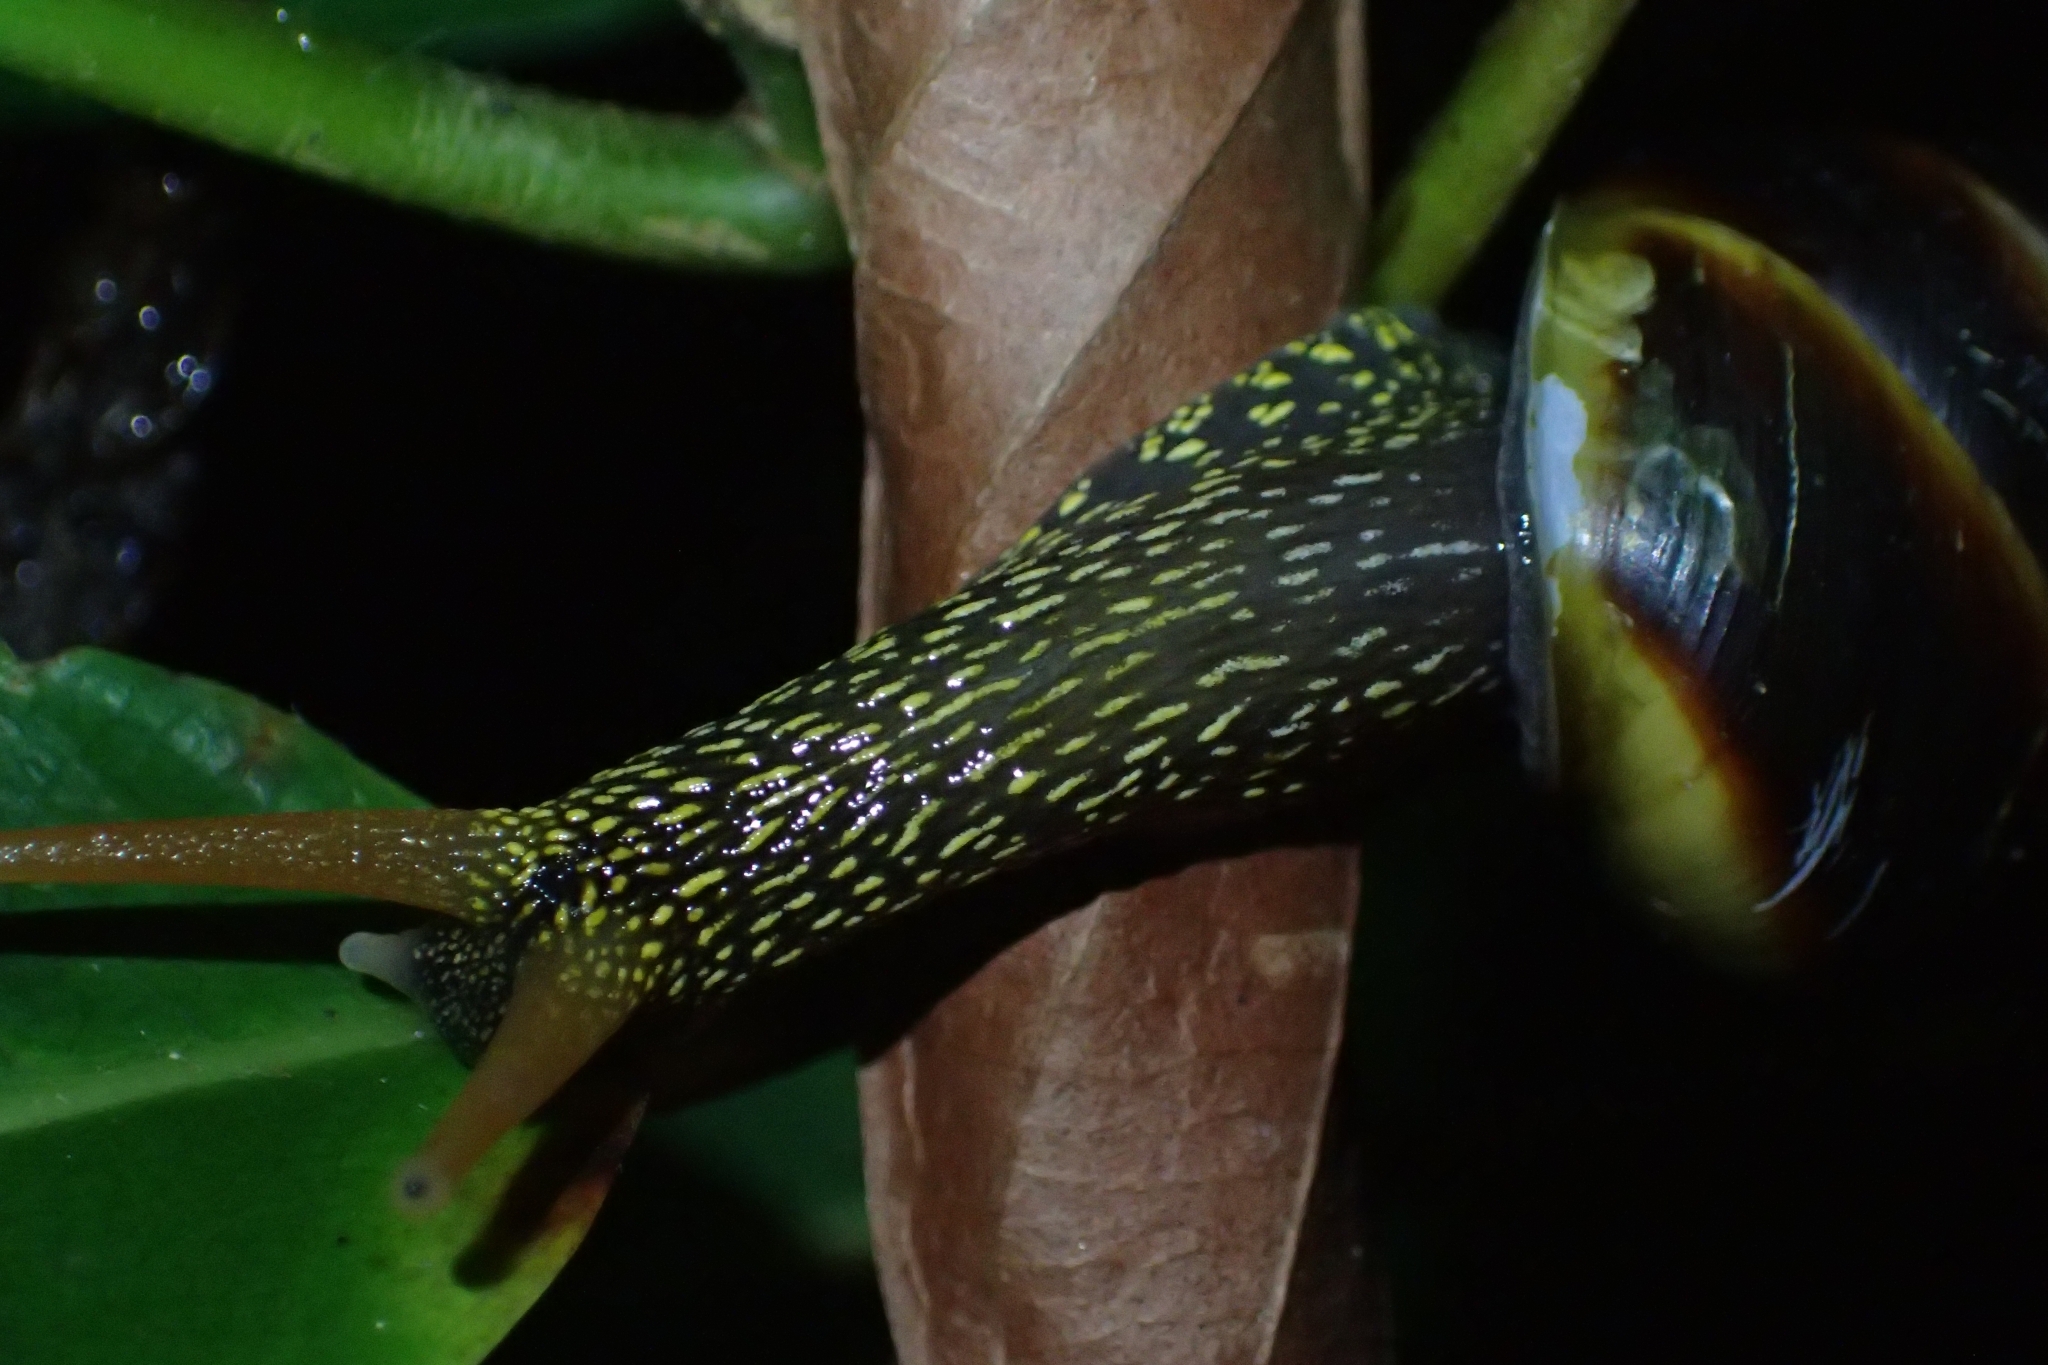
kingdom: Animalia
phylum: Mollusca
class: Gastropoda
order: Stylommatophora
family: Camaenidae
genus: Noctepuna
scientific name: Noctepuna mayana
